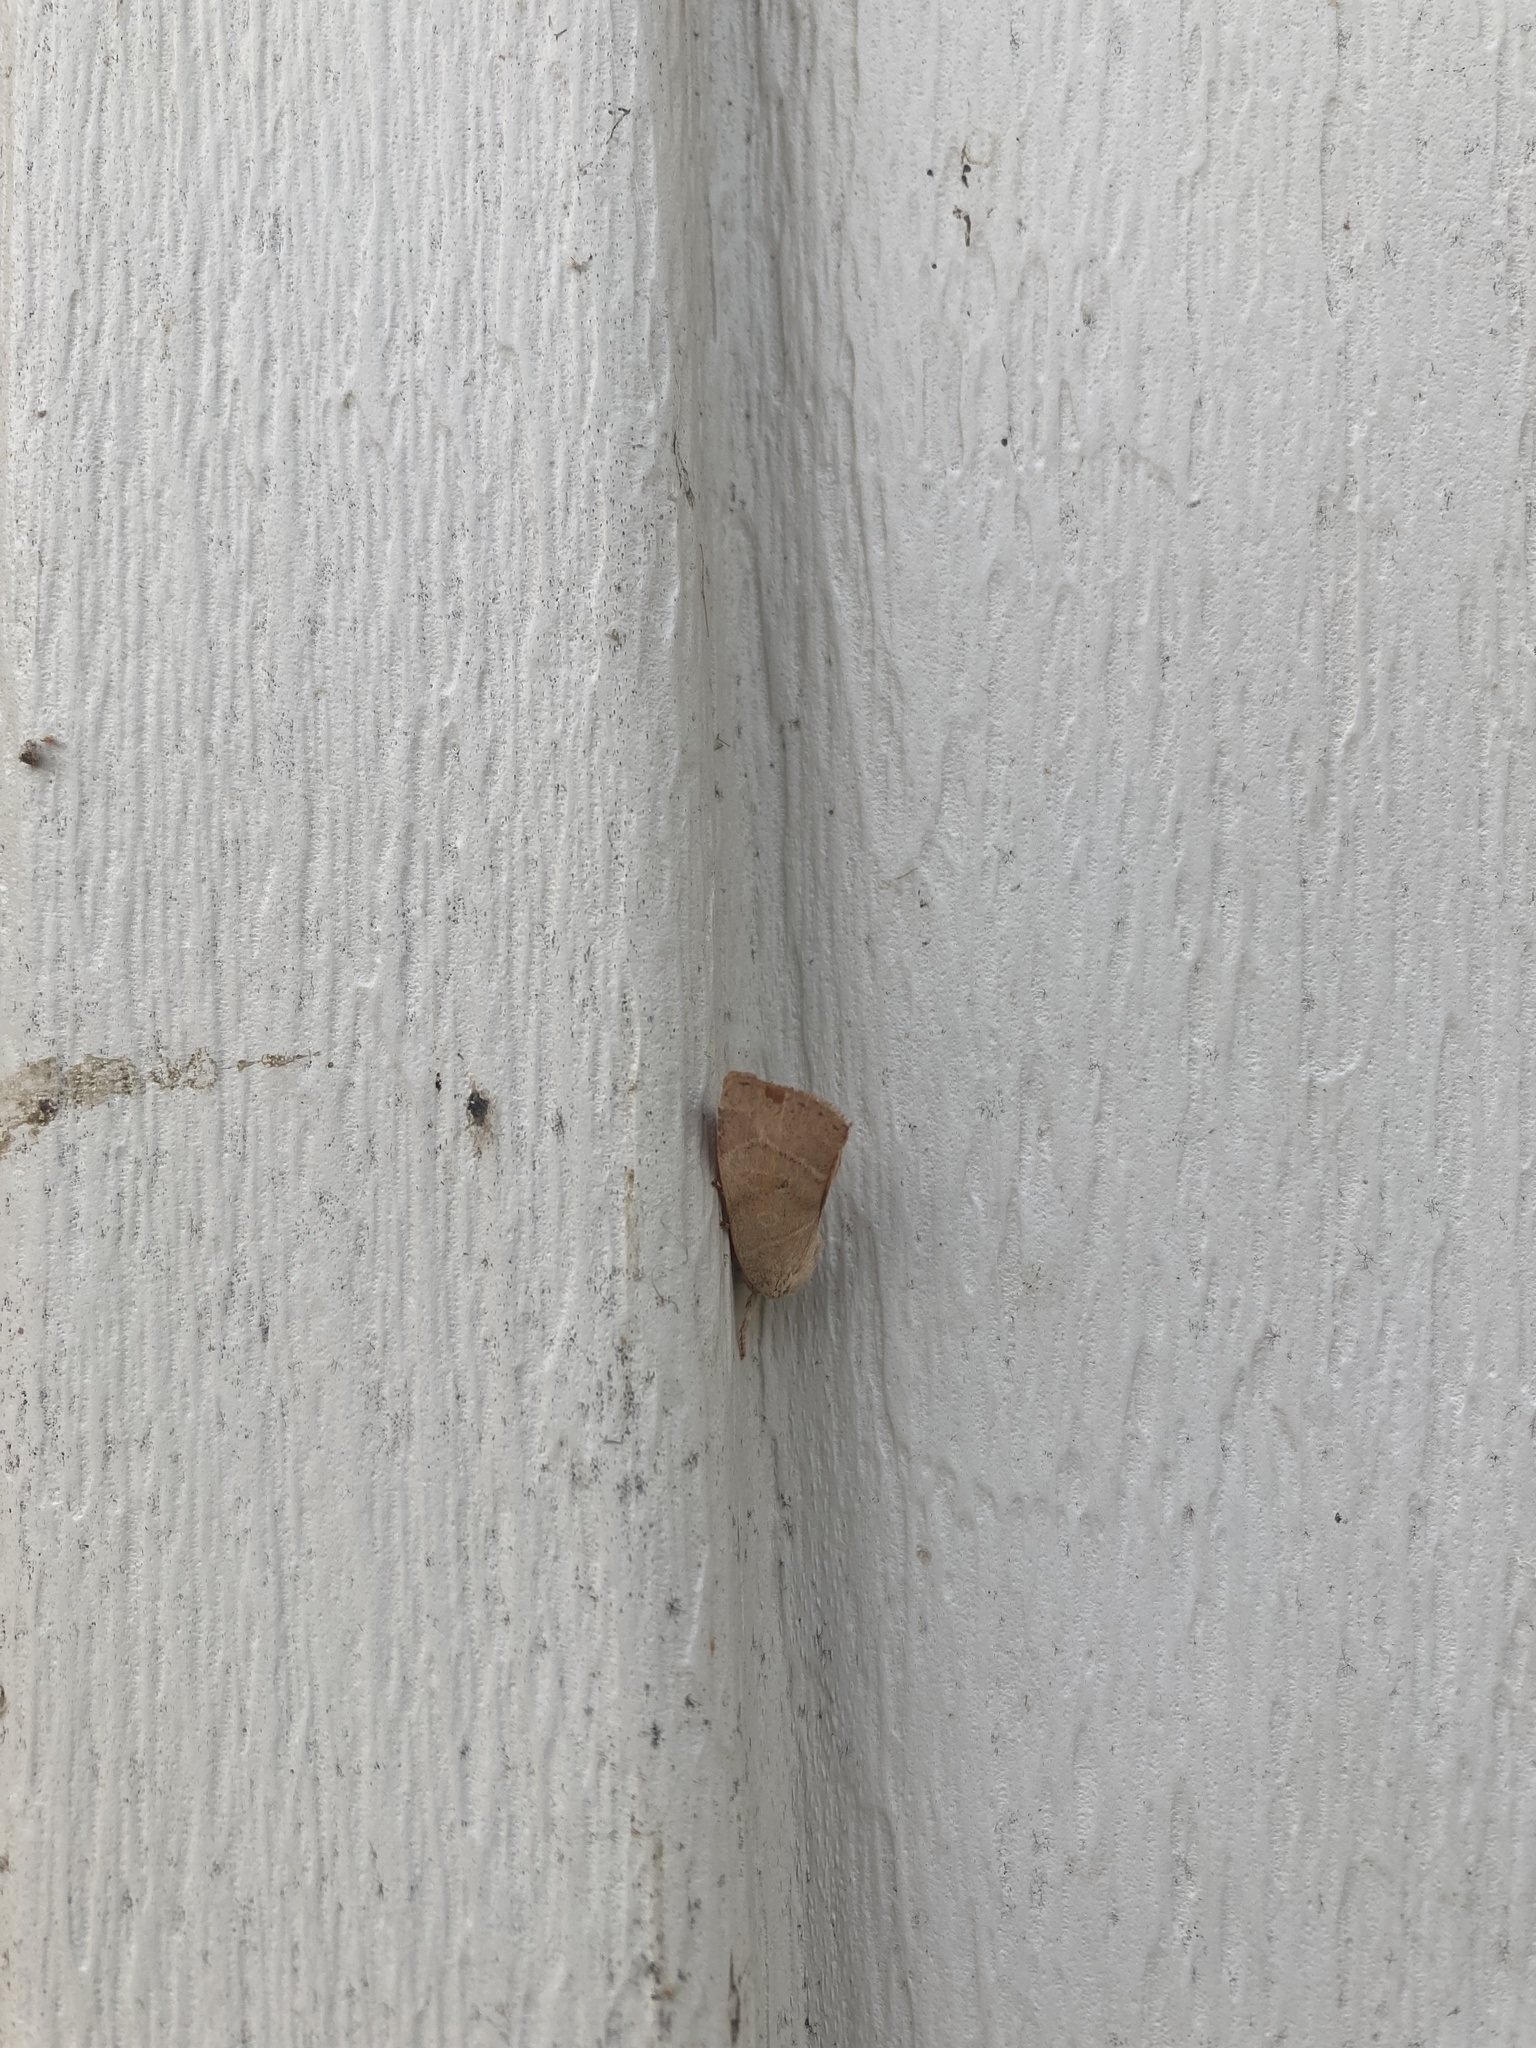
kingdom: Animalia
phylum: Arthropoda
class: Insecta
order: Lepidoptera
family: Noctuidae
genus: Cosmia
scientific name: Cosmia calami
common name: American dun-bar moth
